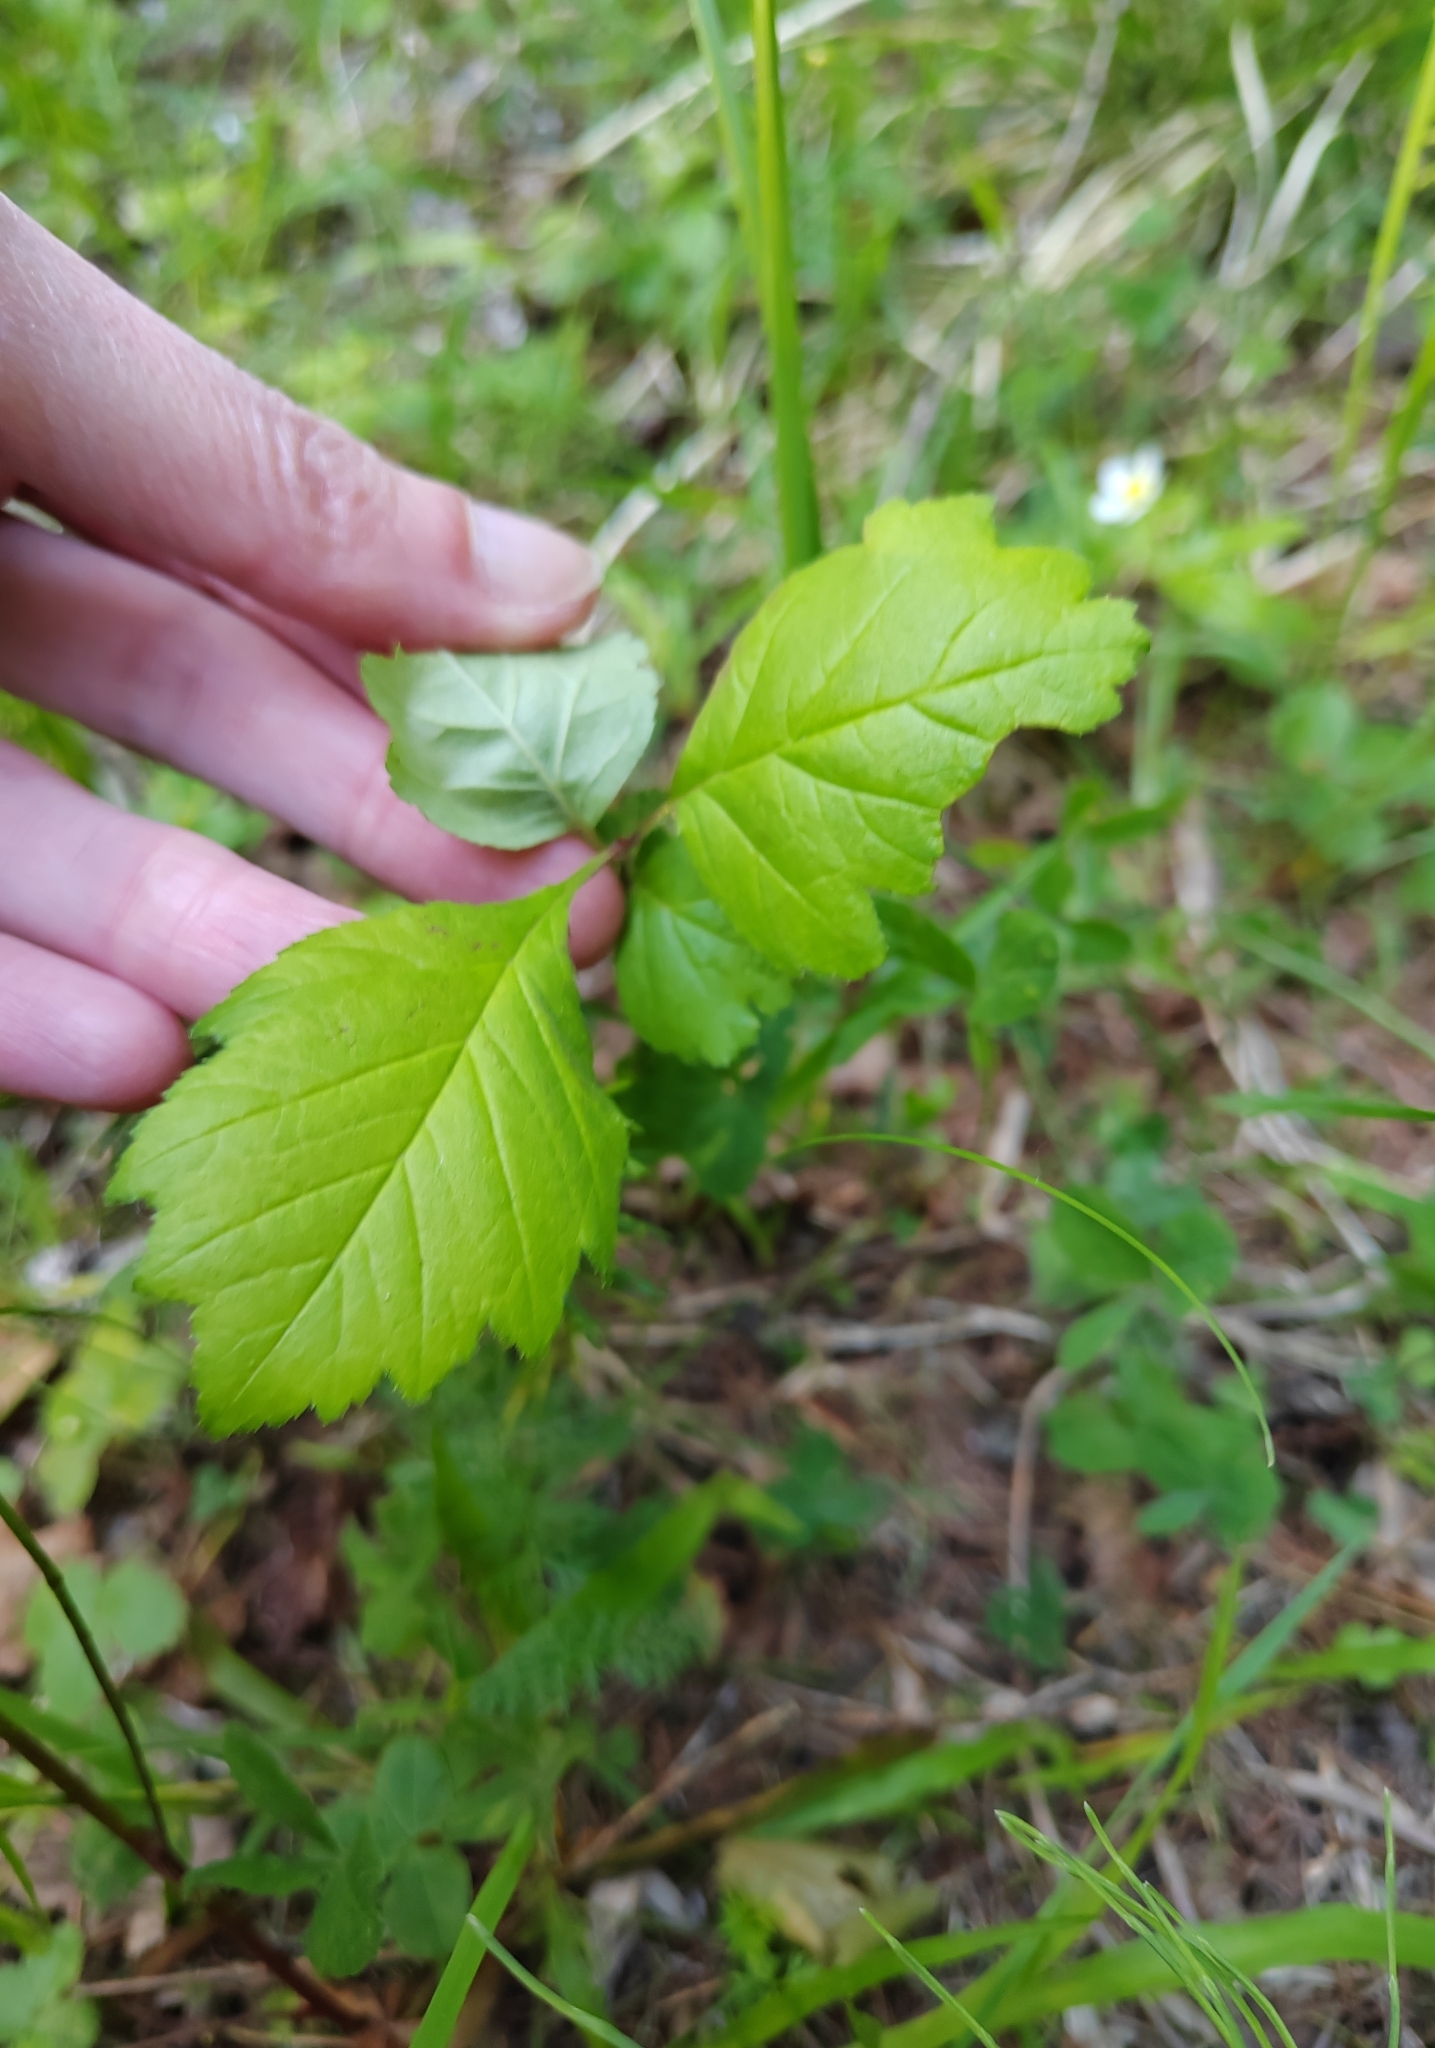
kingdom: Plantae
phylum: Tracheophyta
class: Magnoliopsida
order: Rosales
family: Rosaceae
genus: Crataegus
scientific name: Crataegus sanguinea
